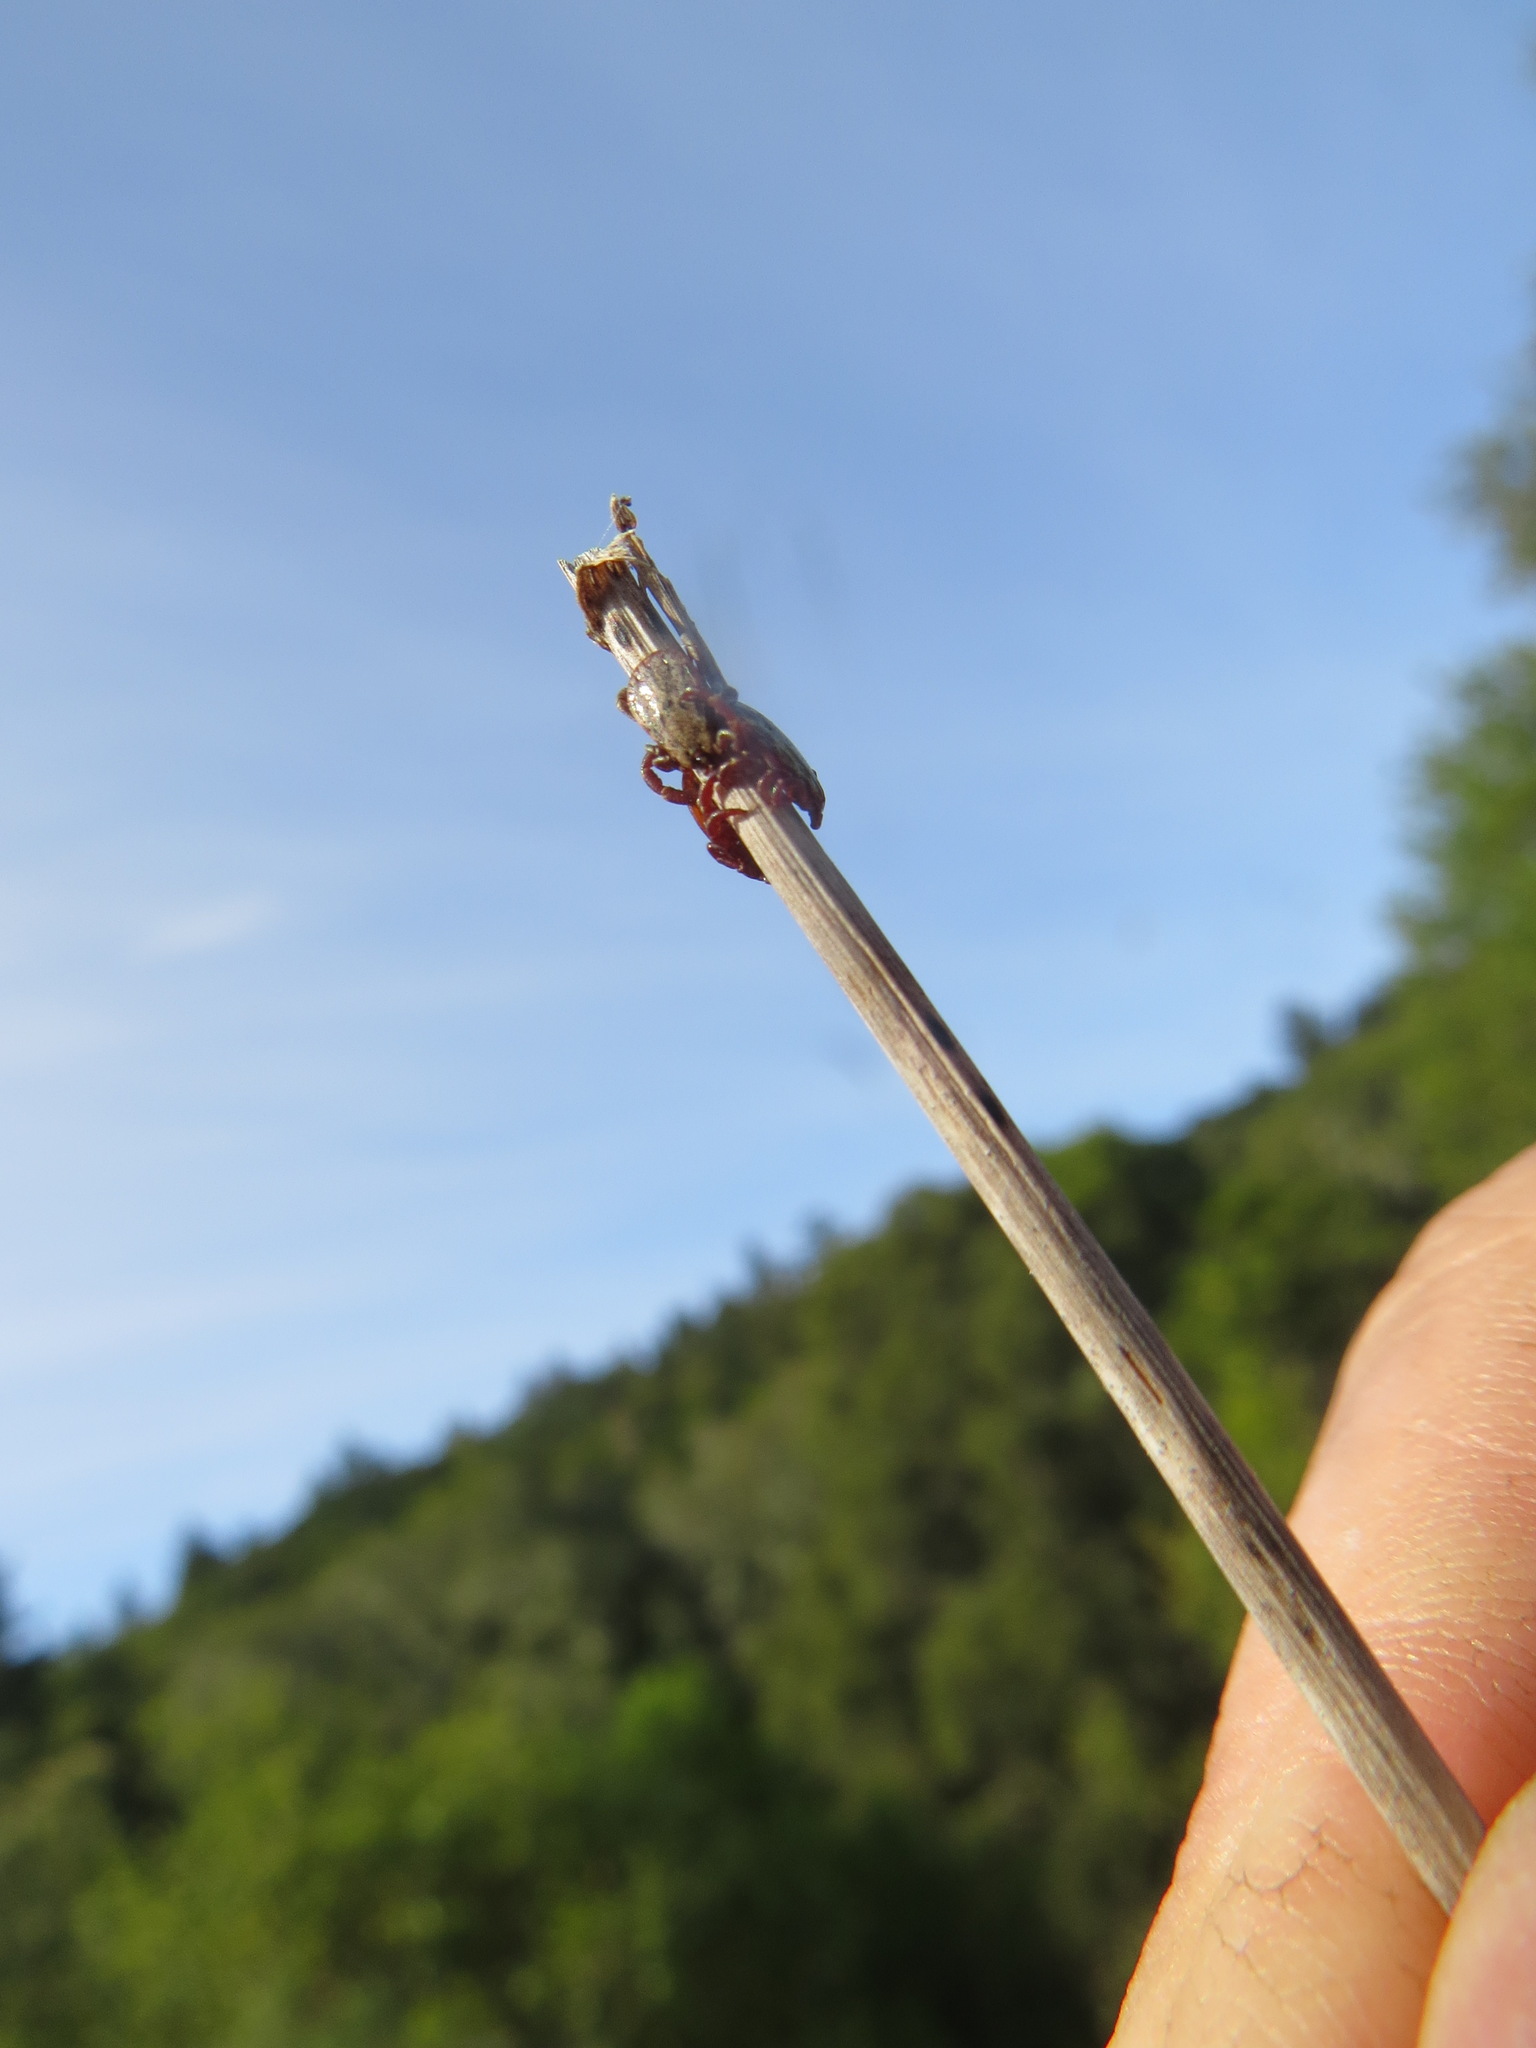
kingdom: Animalia
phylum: Arthropoda
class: Arachnida
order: Ixodida
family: Ixodidae
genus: Dermacentor
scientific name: Dermacentor occidentalis
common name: Net tick
